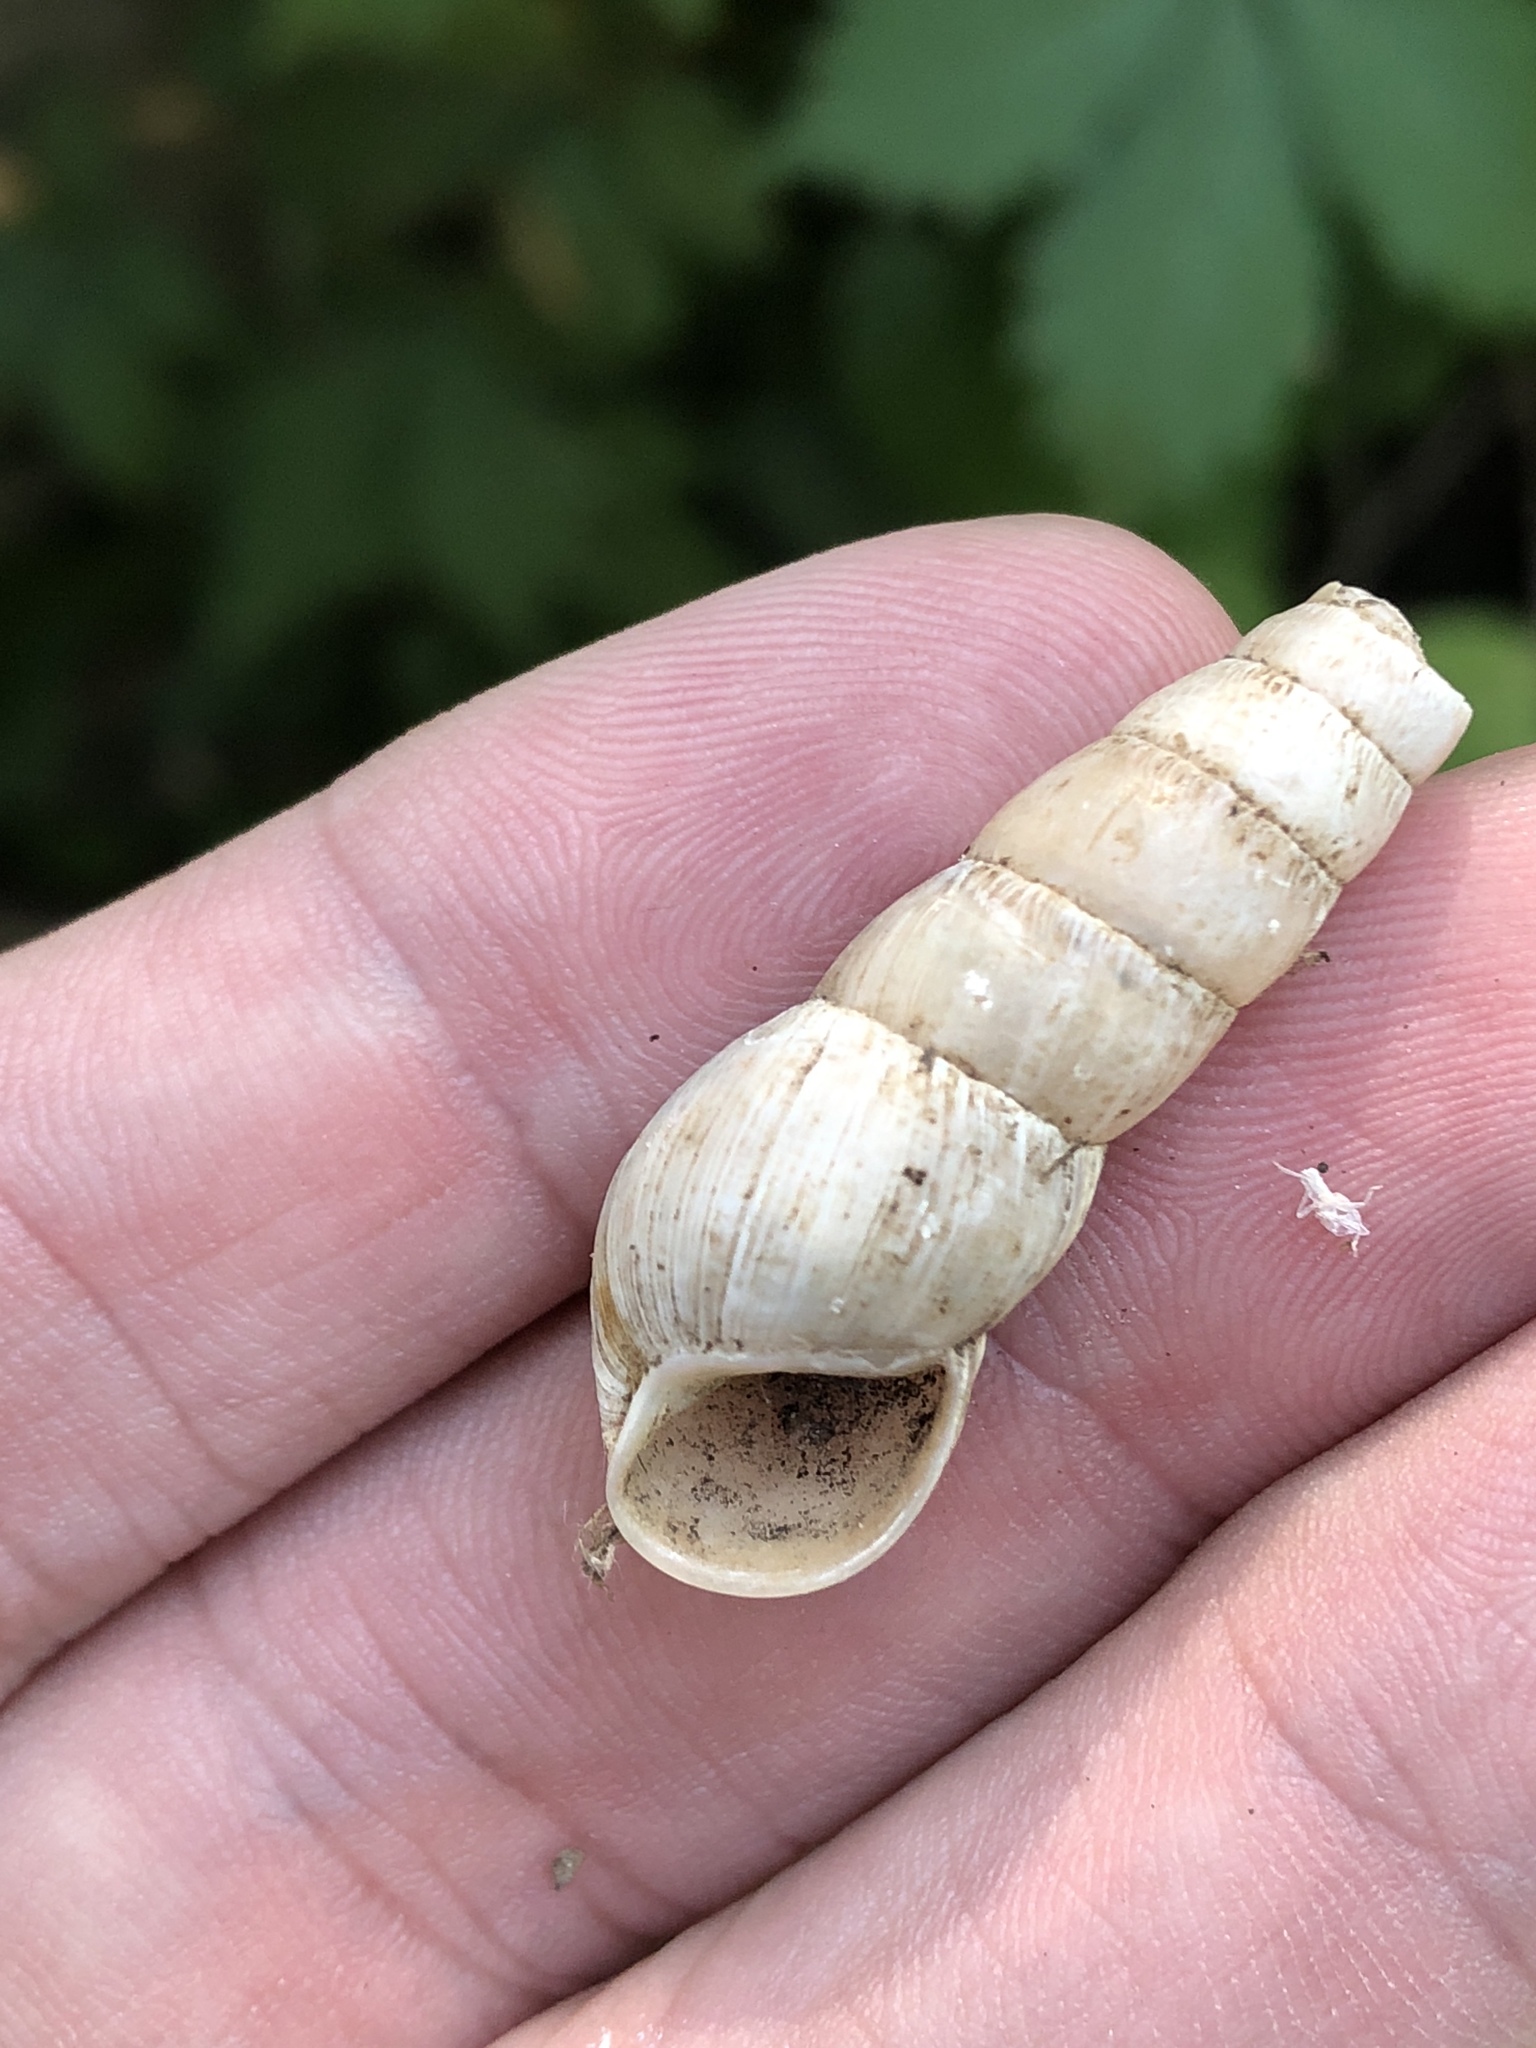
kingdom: Animalia
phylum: Mollusca
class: Gastropoda
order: Stylommatophora
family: Achatinidae
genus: Rumina
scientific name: Rumina decollata
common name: Decollate snail
